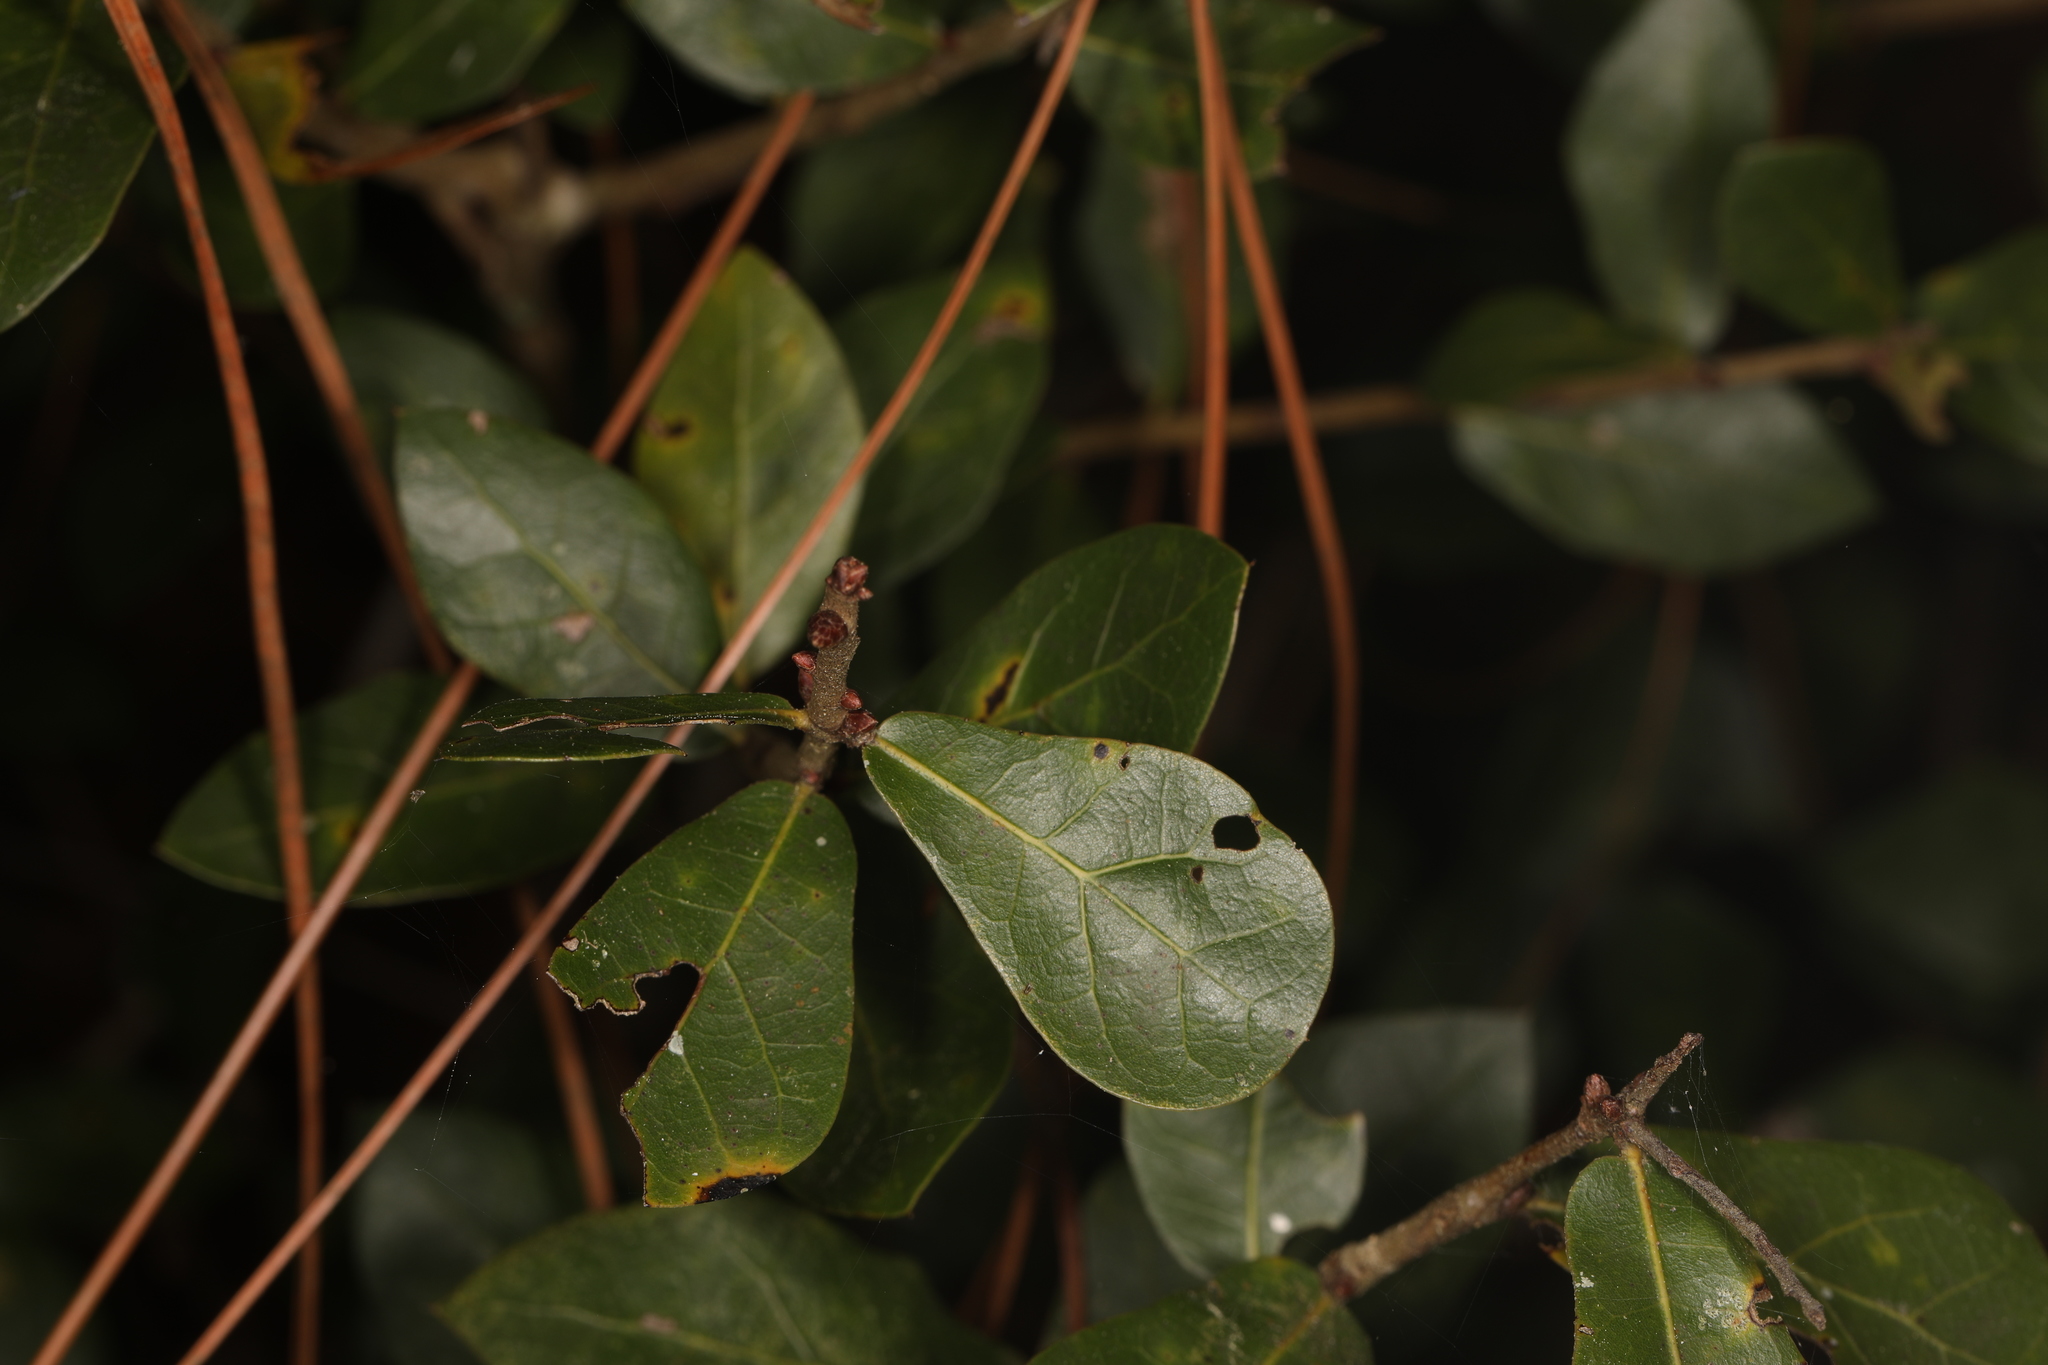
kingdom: Plantae
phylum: Tracheophyta
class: Magnoliopsida
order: Fagales
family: Fagaceae
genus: Quercus
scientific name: Quercus myrtifolia
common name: Myrtle oak
